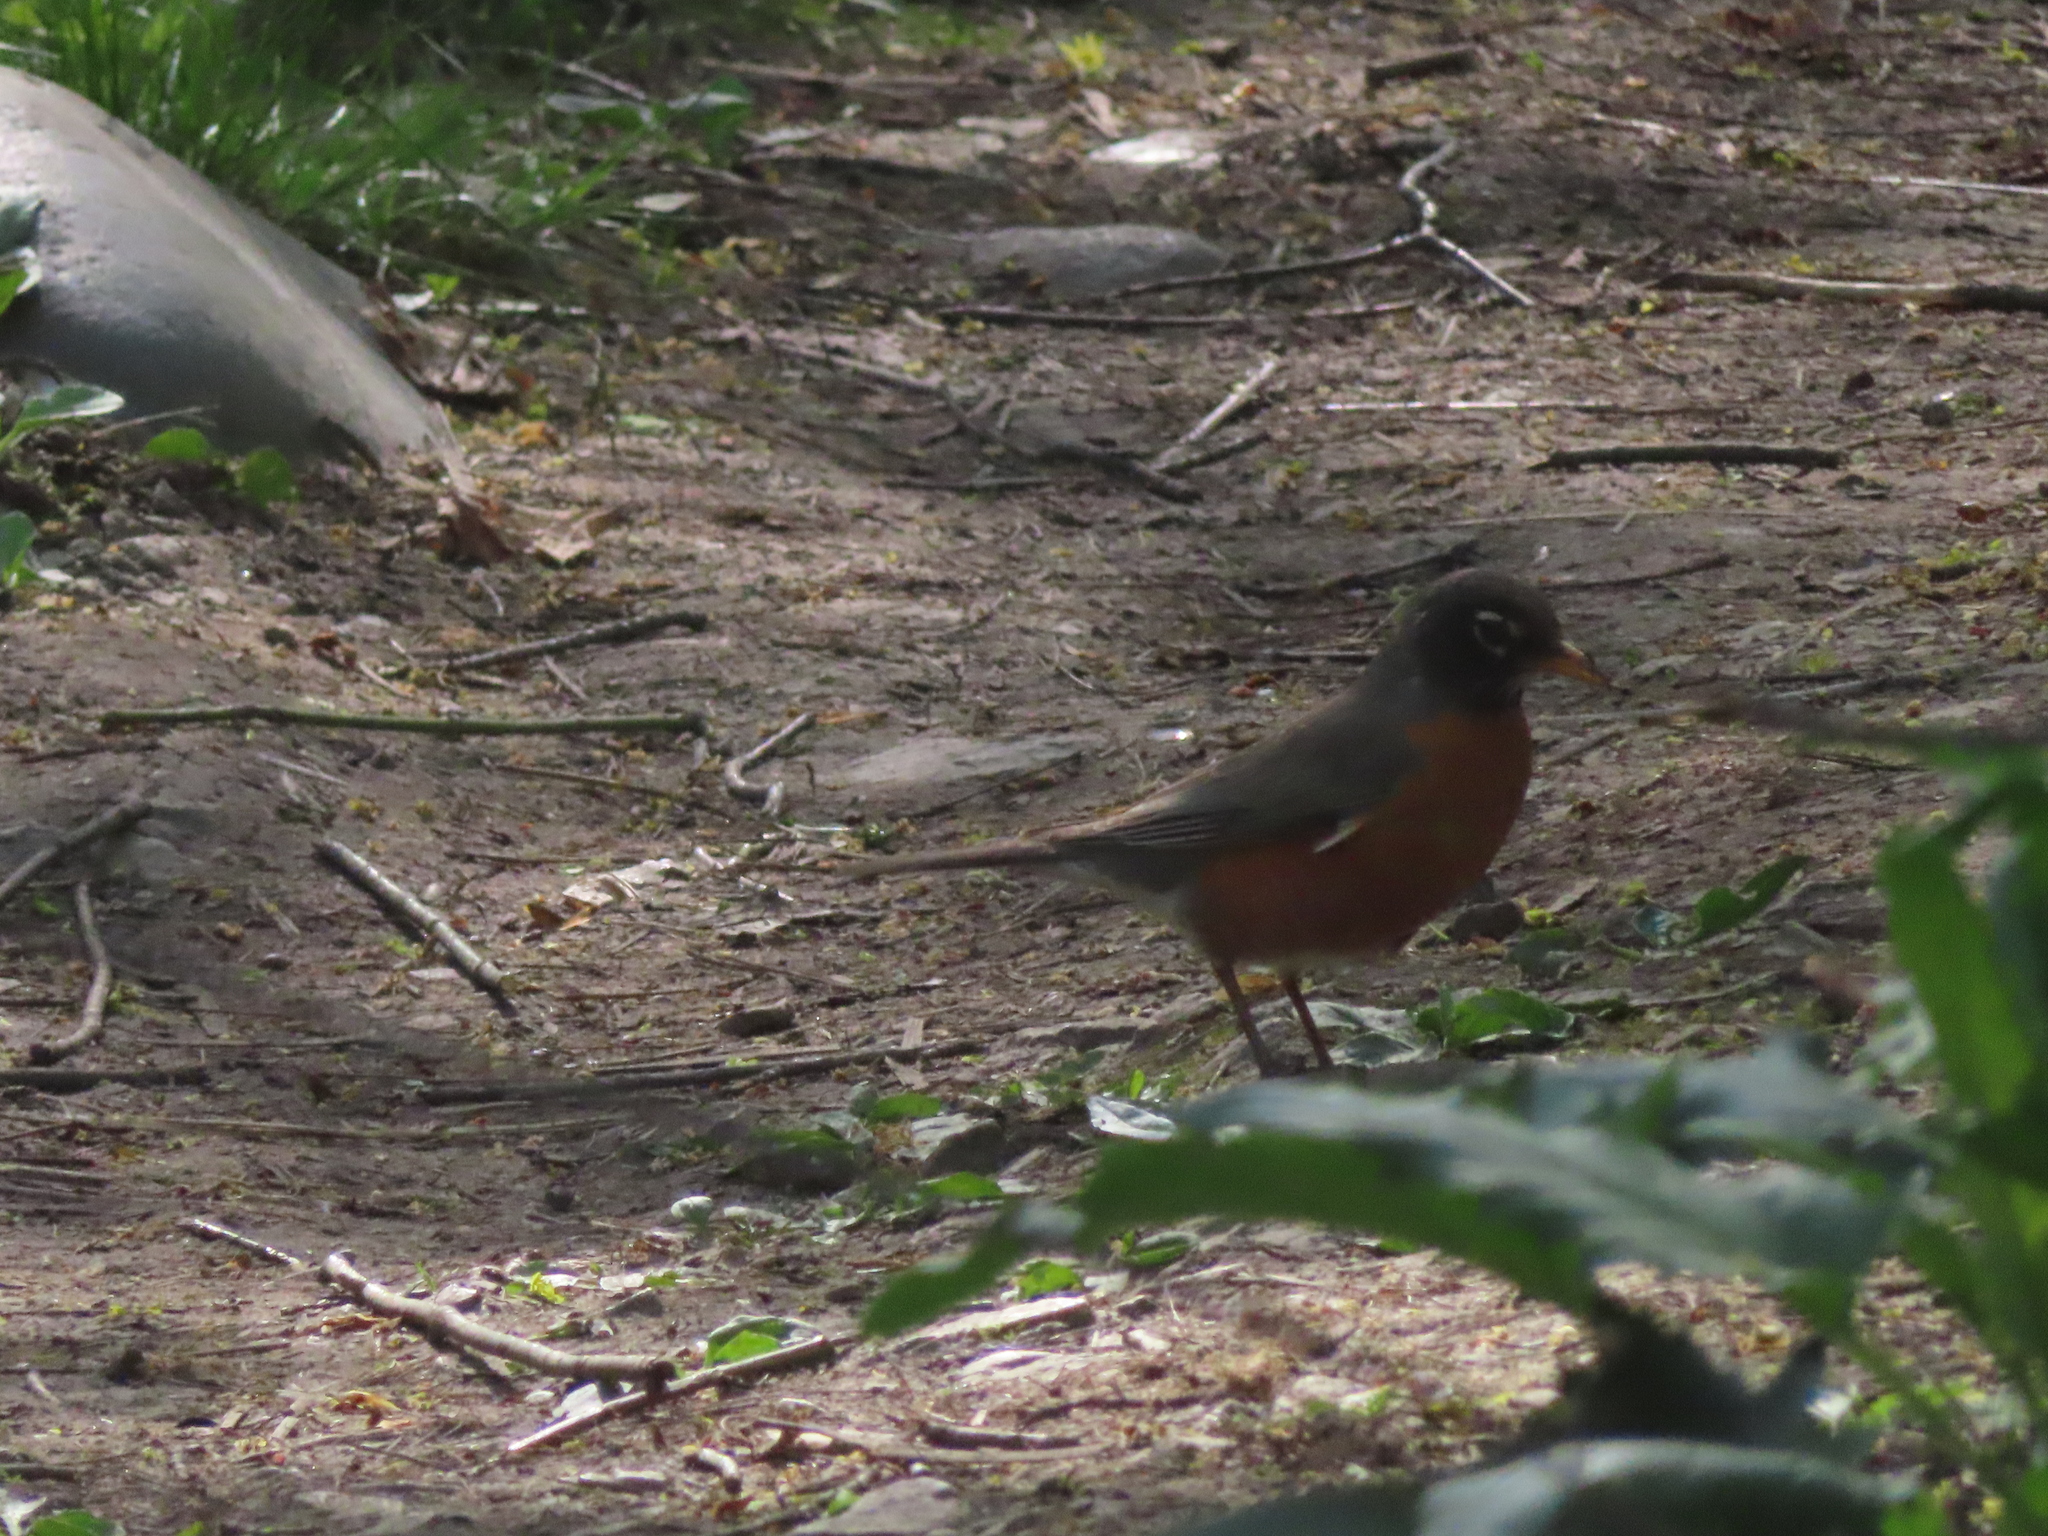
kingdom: Animalia
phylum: Chordata
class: Aves
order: Passeriformes
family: Turdidae
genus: Turdus
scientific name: Turdus migratorius
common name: American robin
